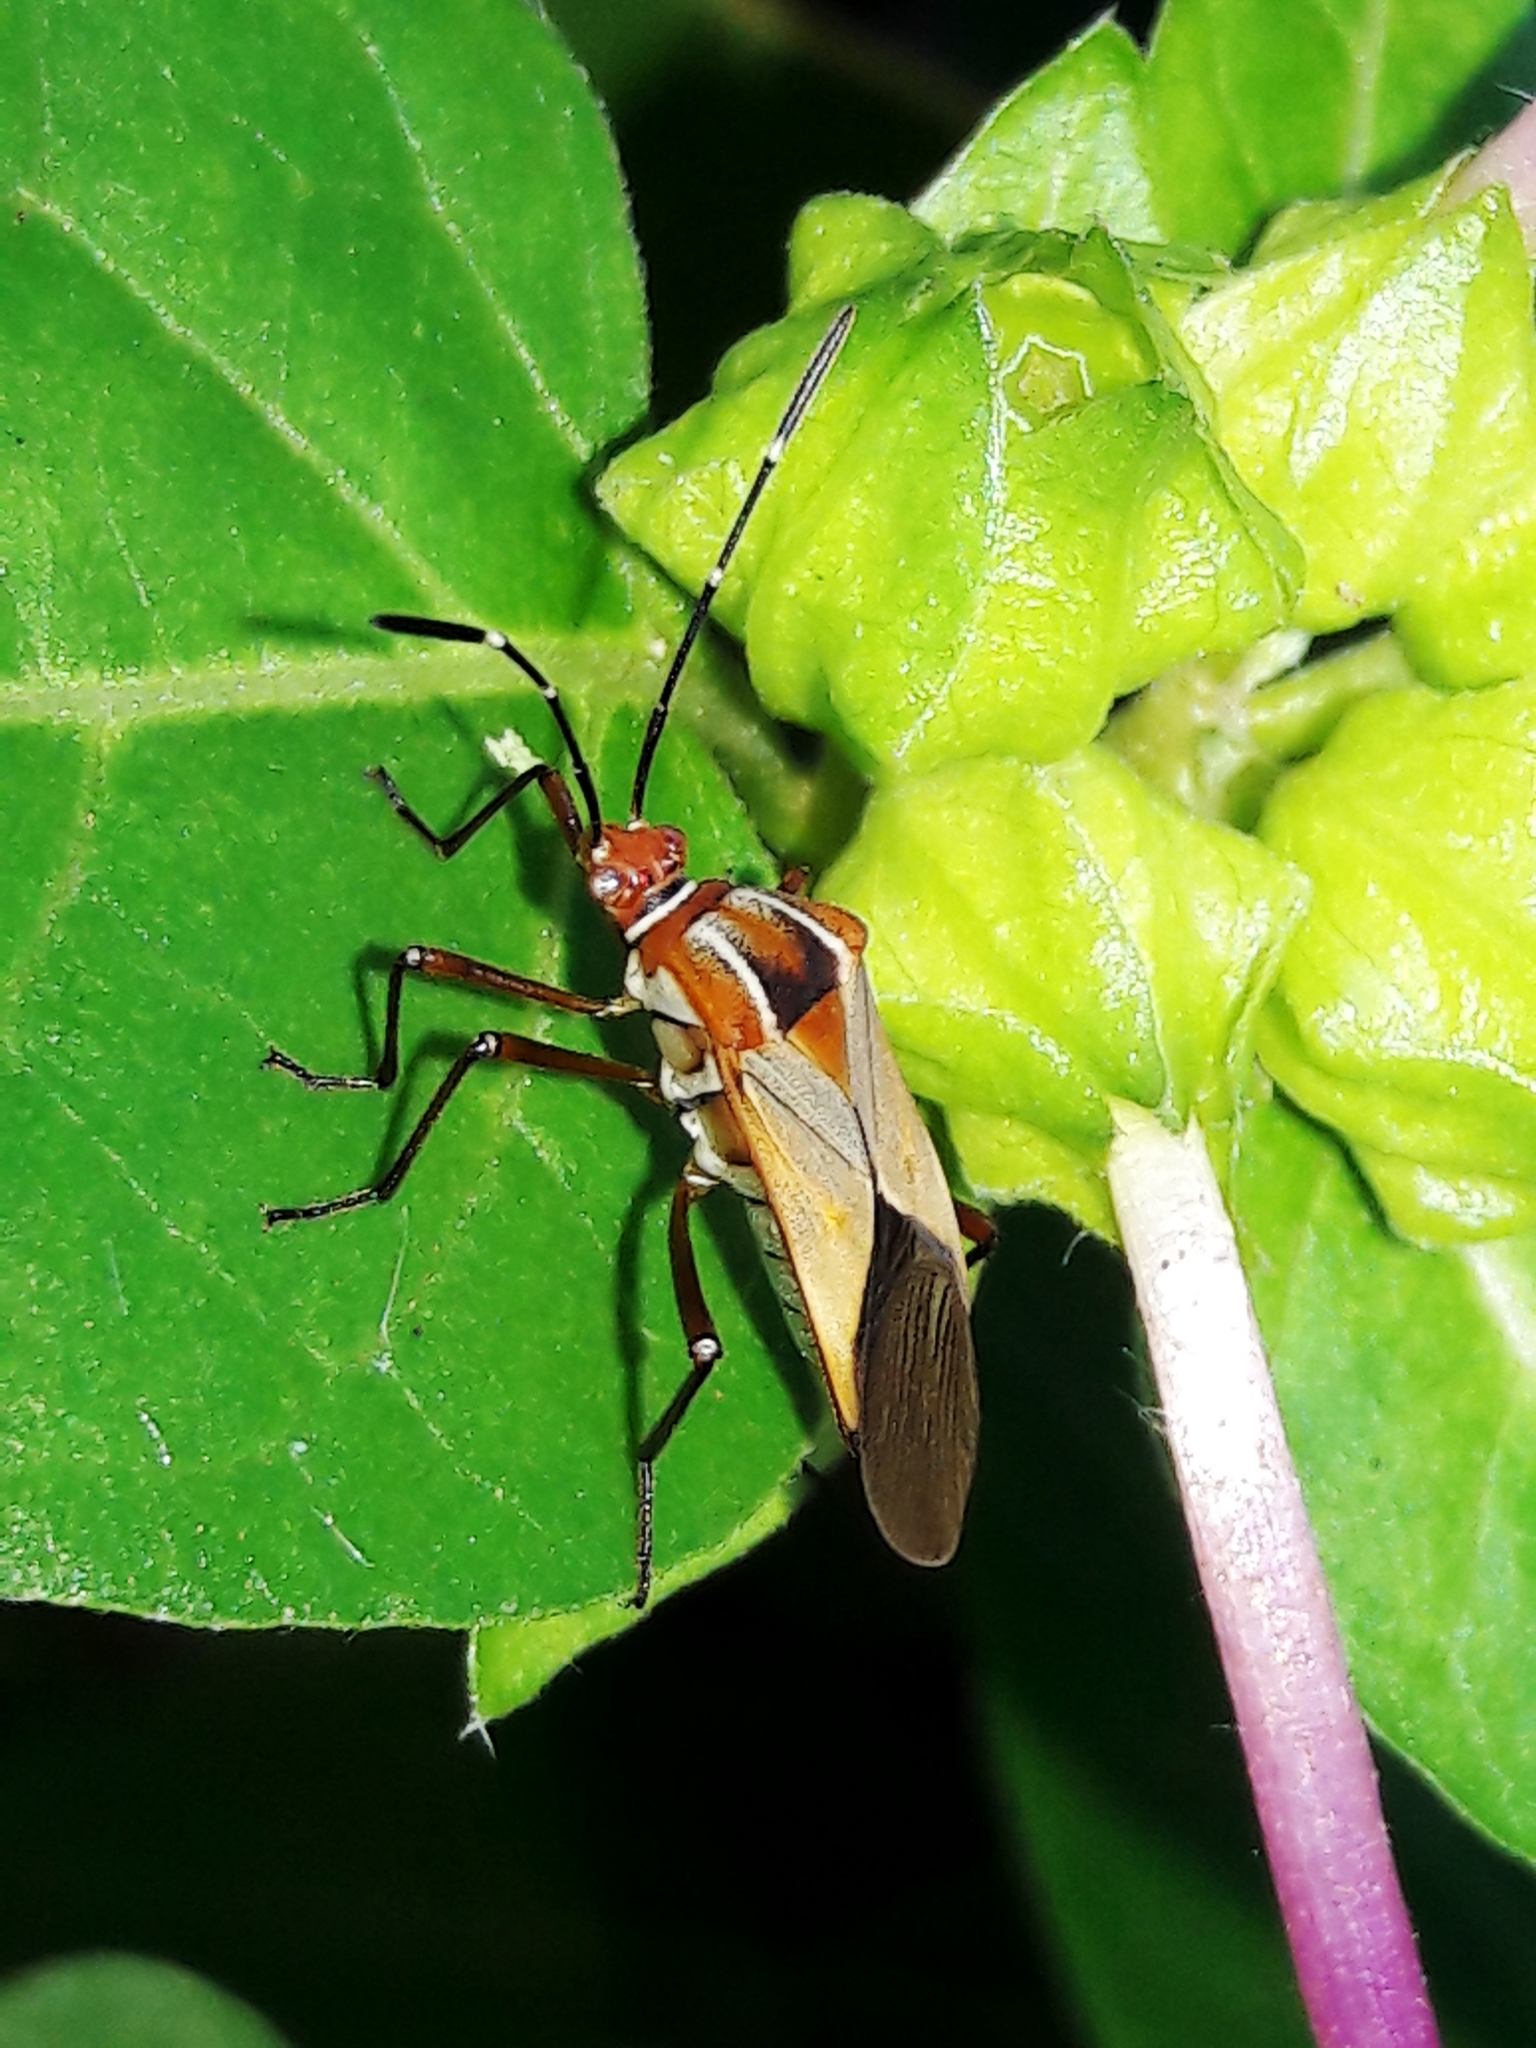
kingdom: Animalia
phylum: Arthropoda
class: Insecta
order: Hemiptera
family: Coreidae
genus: Hypselonotus
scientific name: Hypselonotus interruptus
